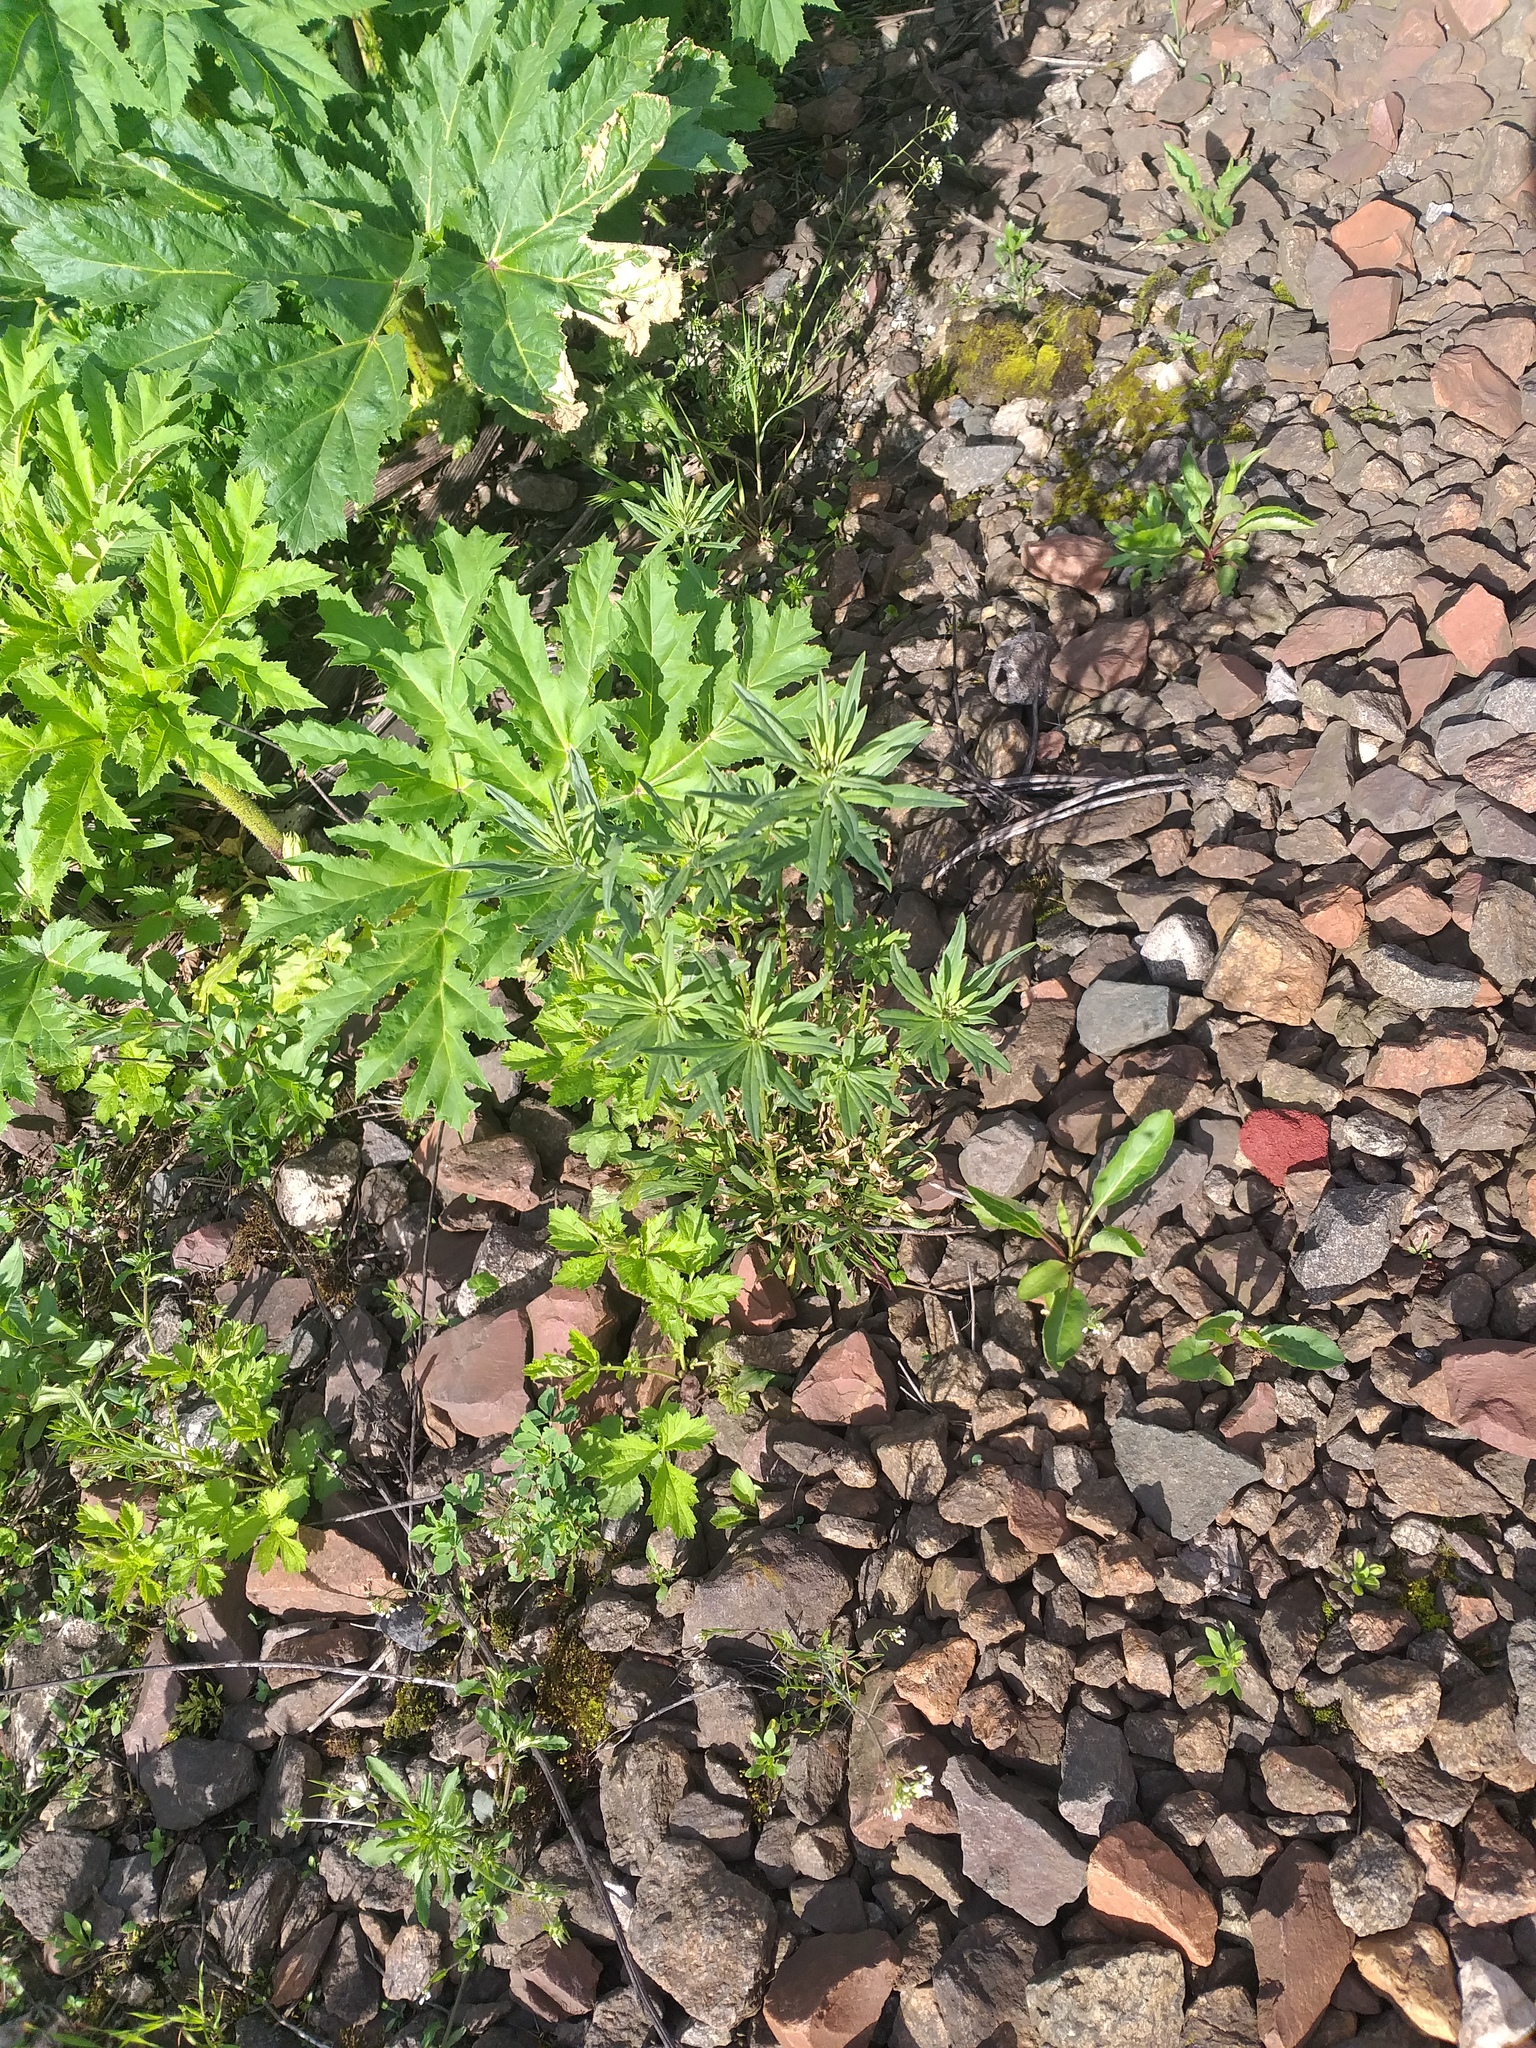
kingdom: Plantae
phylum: Tracheophyta
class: Magnoliopsida
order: Brassicales
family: Brassicaceae
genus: Erysimum
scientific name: Erysimum hieraciifolium
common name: European wallflower
